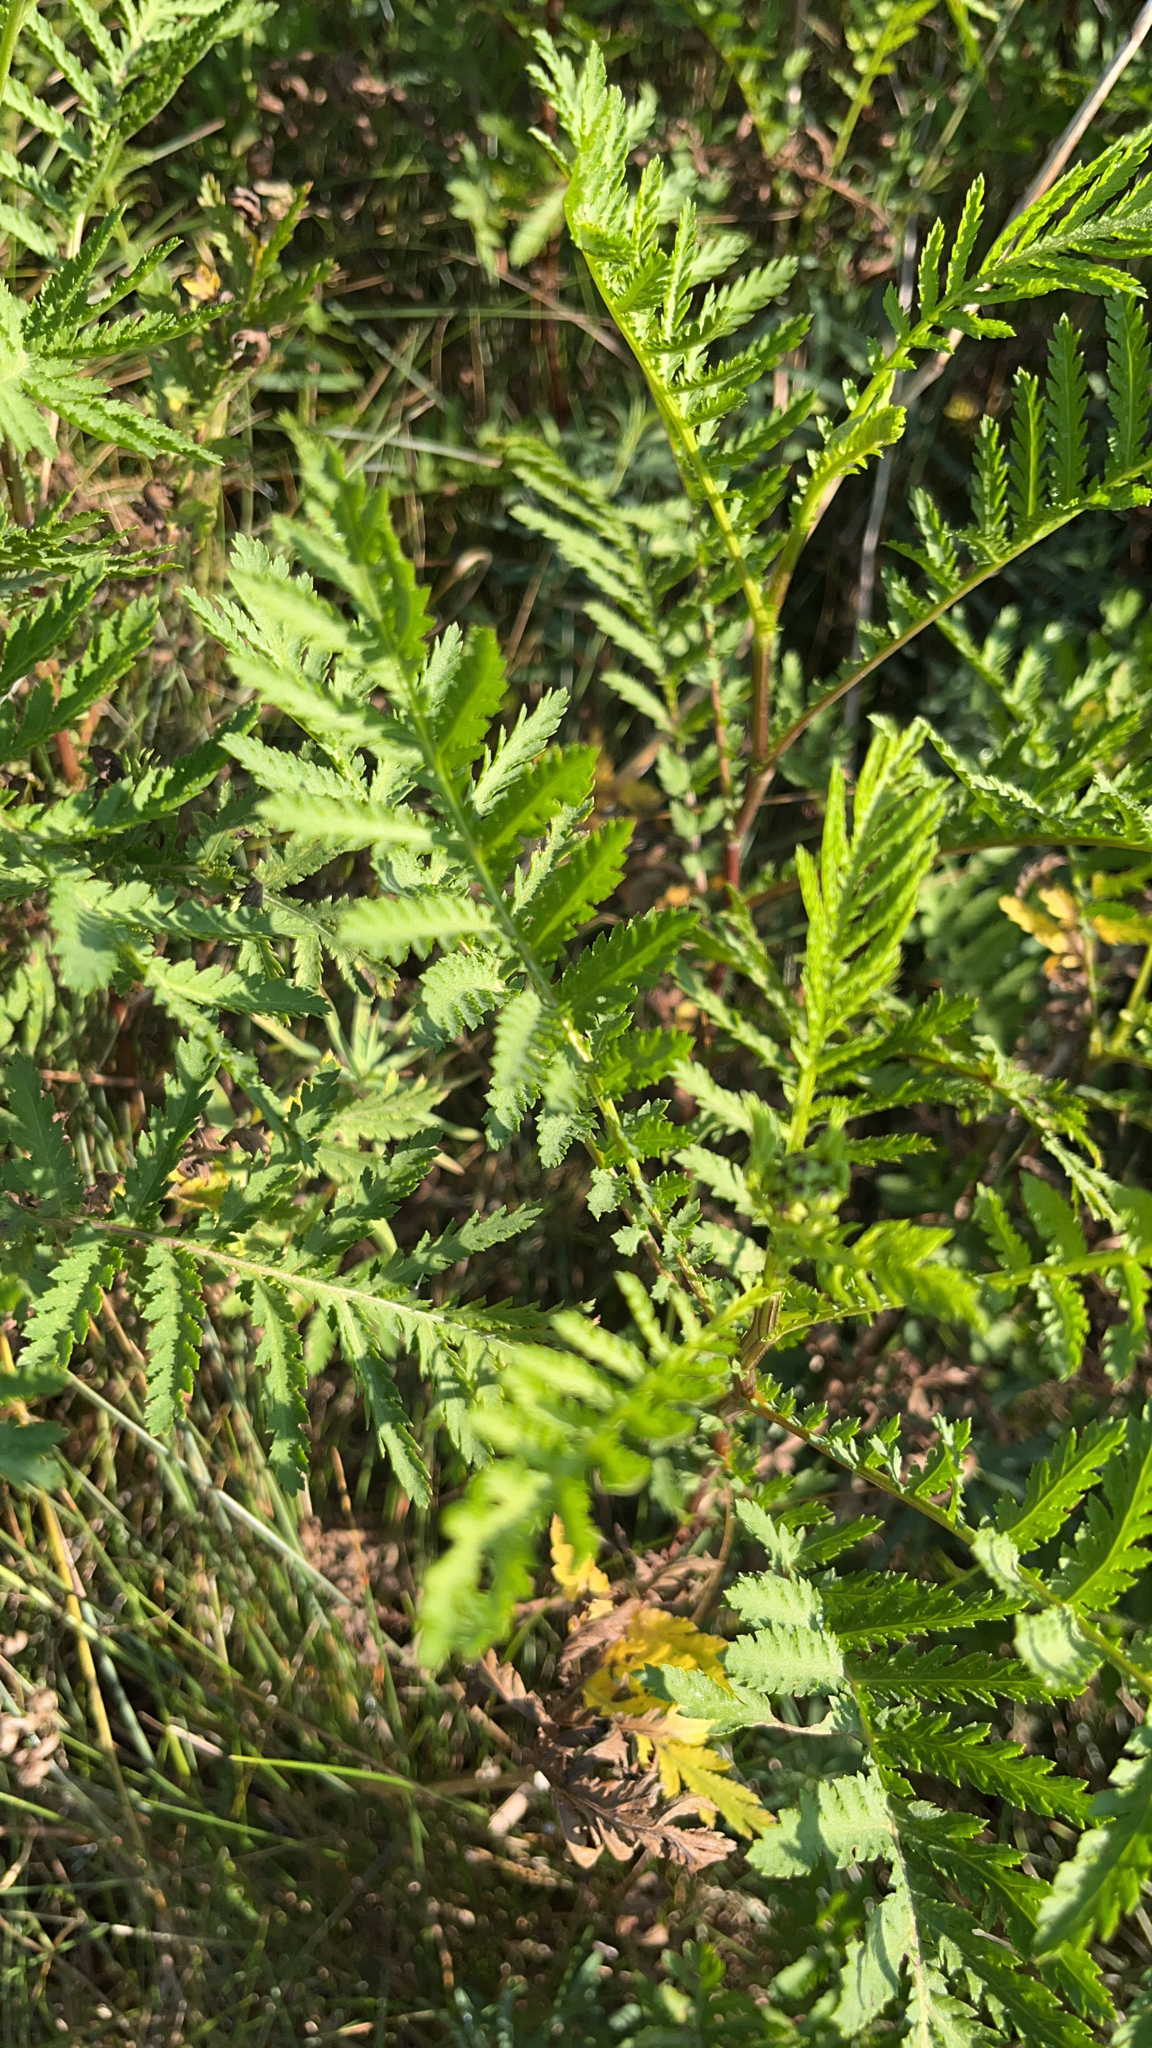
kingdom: Plantae
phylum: Tracheophyta
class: Magnoliopsida
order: Asterales
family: Asteraceae
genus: Tanacetum
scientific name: Tanacetum vulgare
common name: Common tansy
